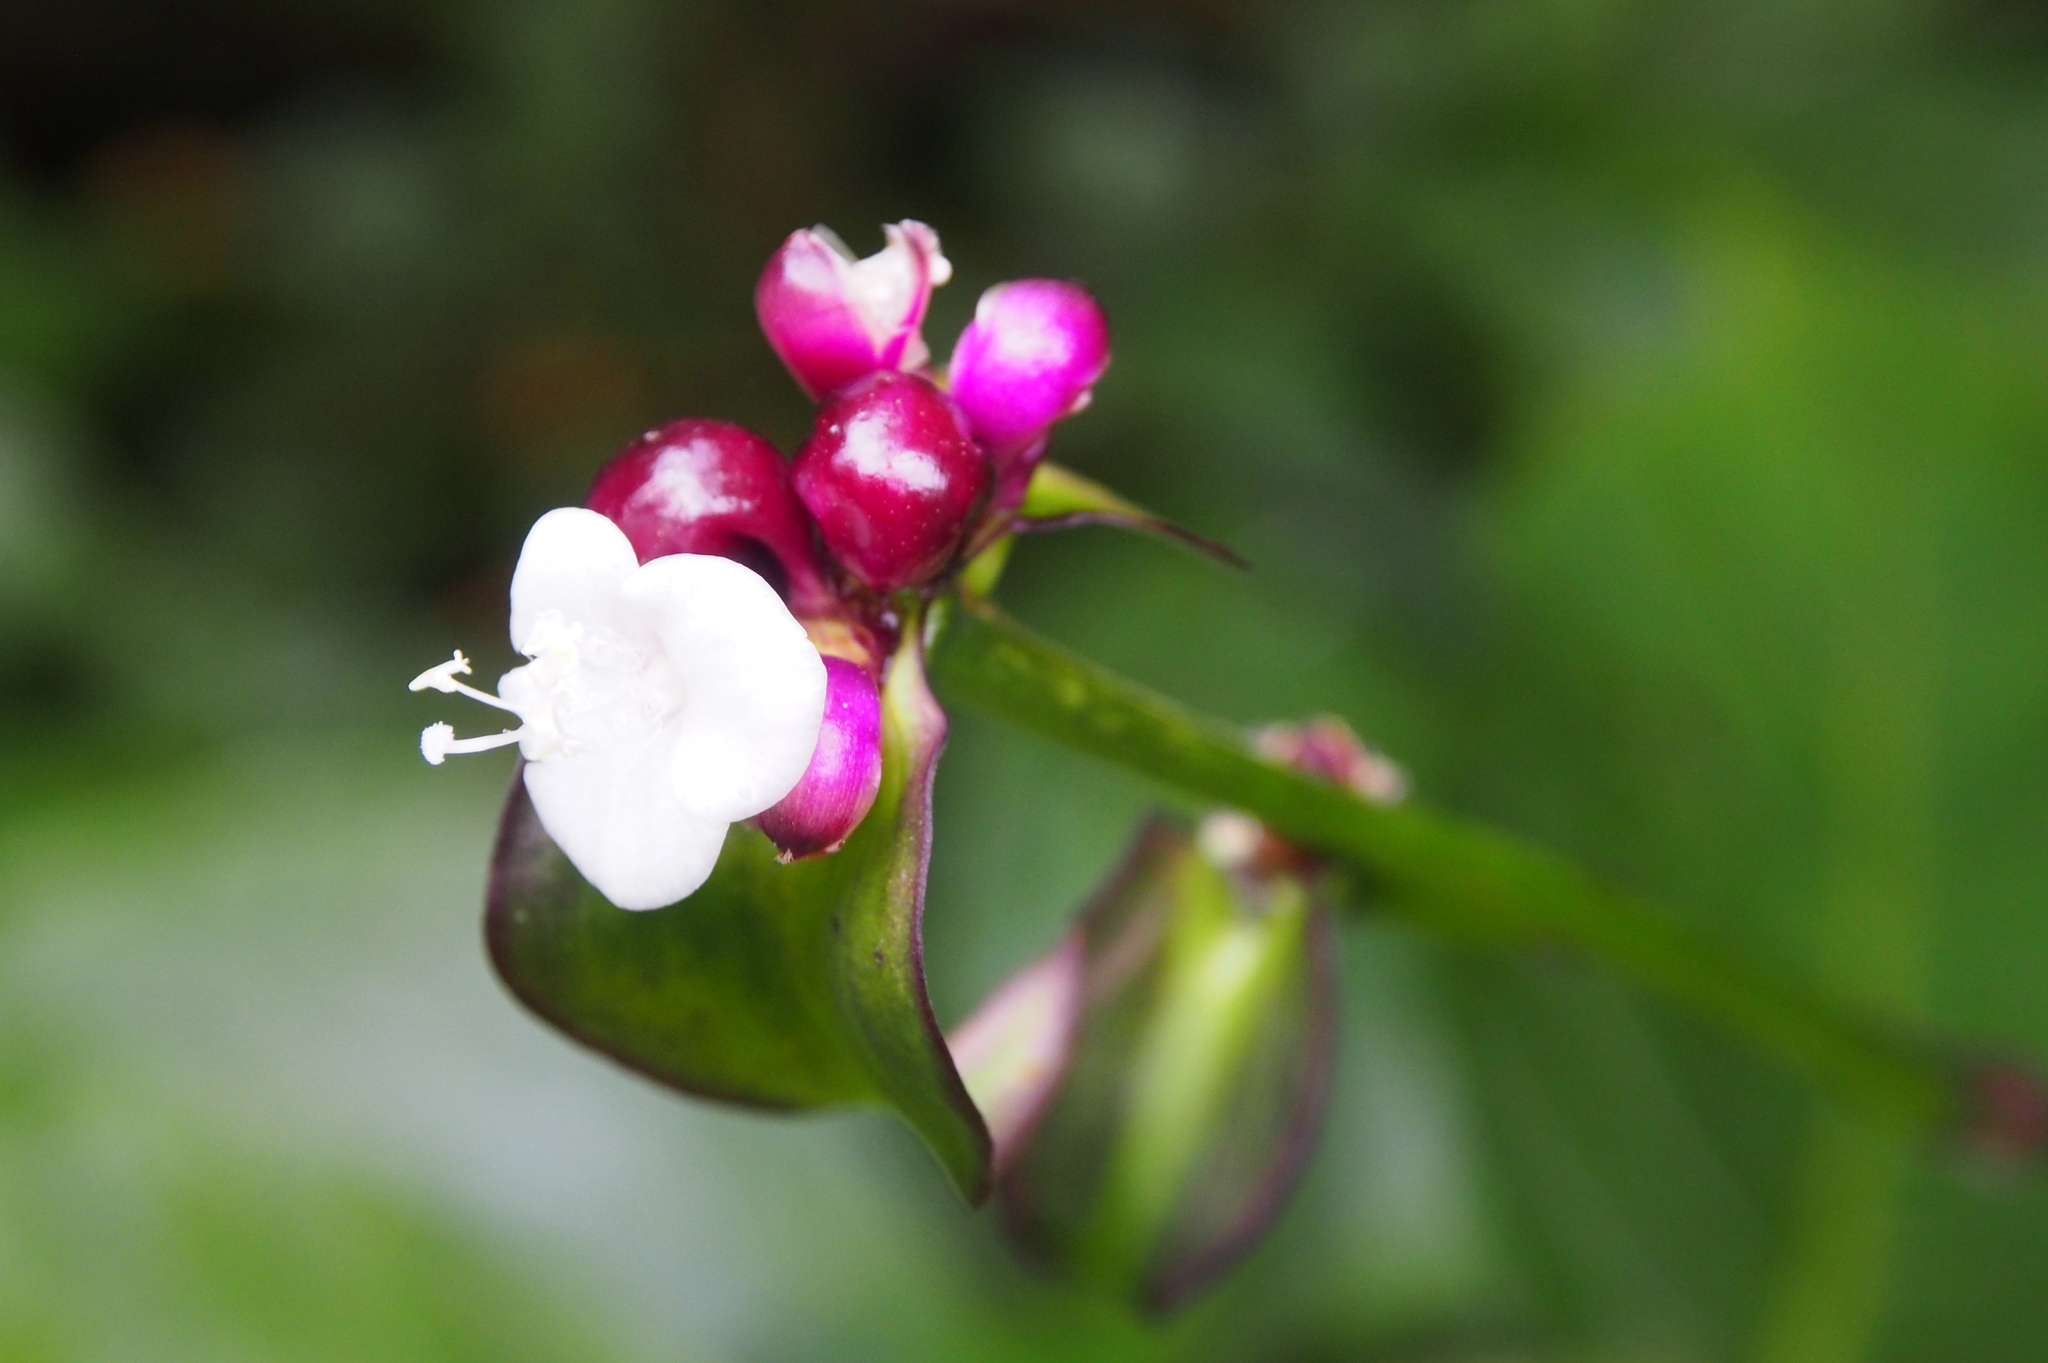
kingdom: Plantae
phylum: Tracheophyta
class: Liliopsida
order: Commelinales
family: Commelinaceae
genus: Tradescantia
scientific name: Tradescantia zanonia
